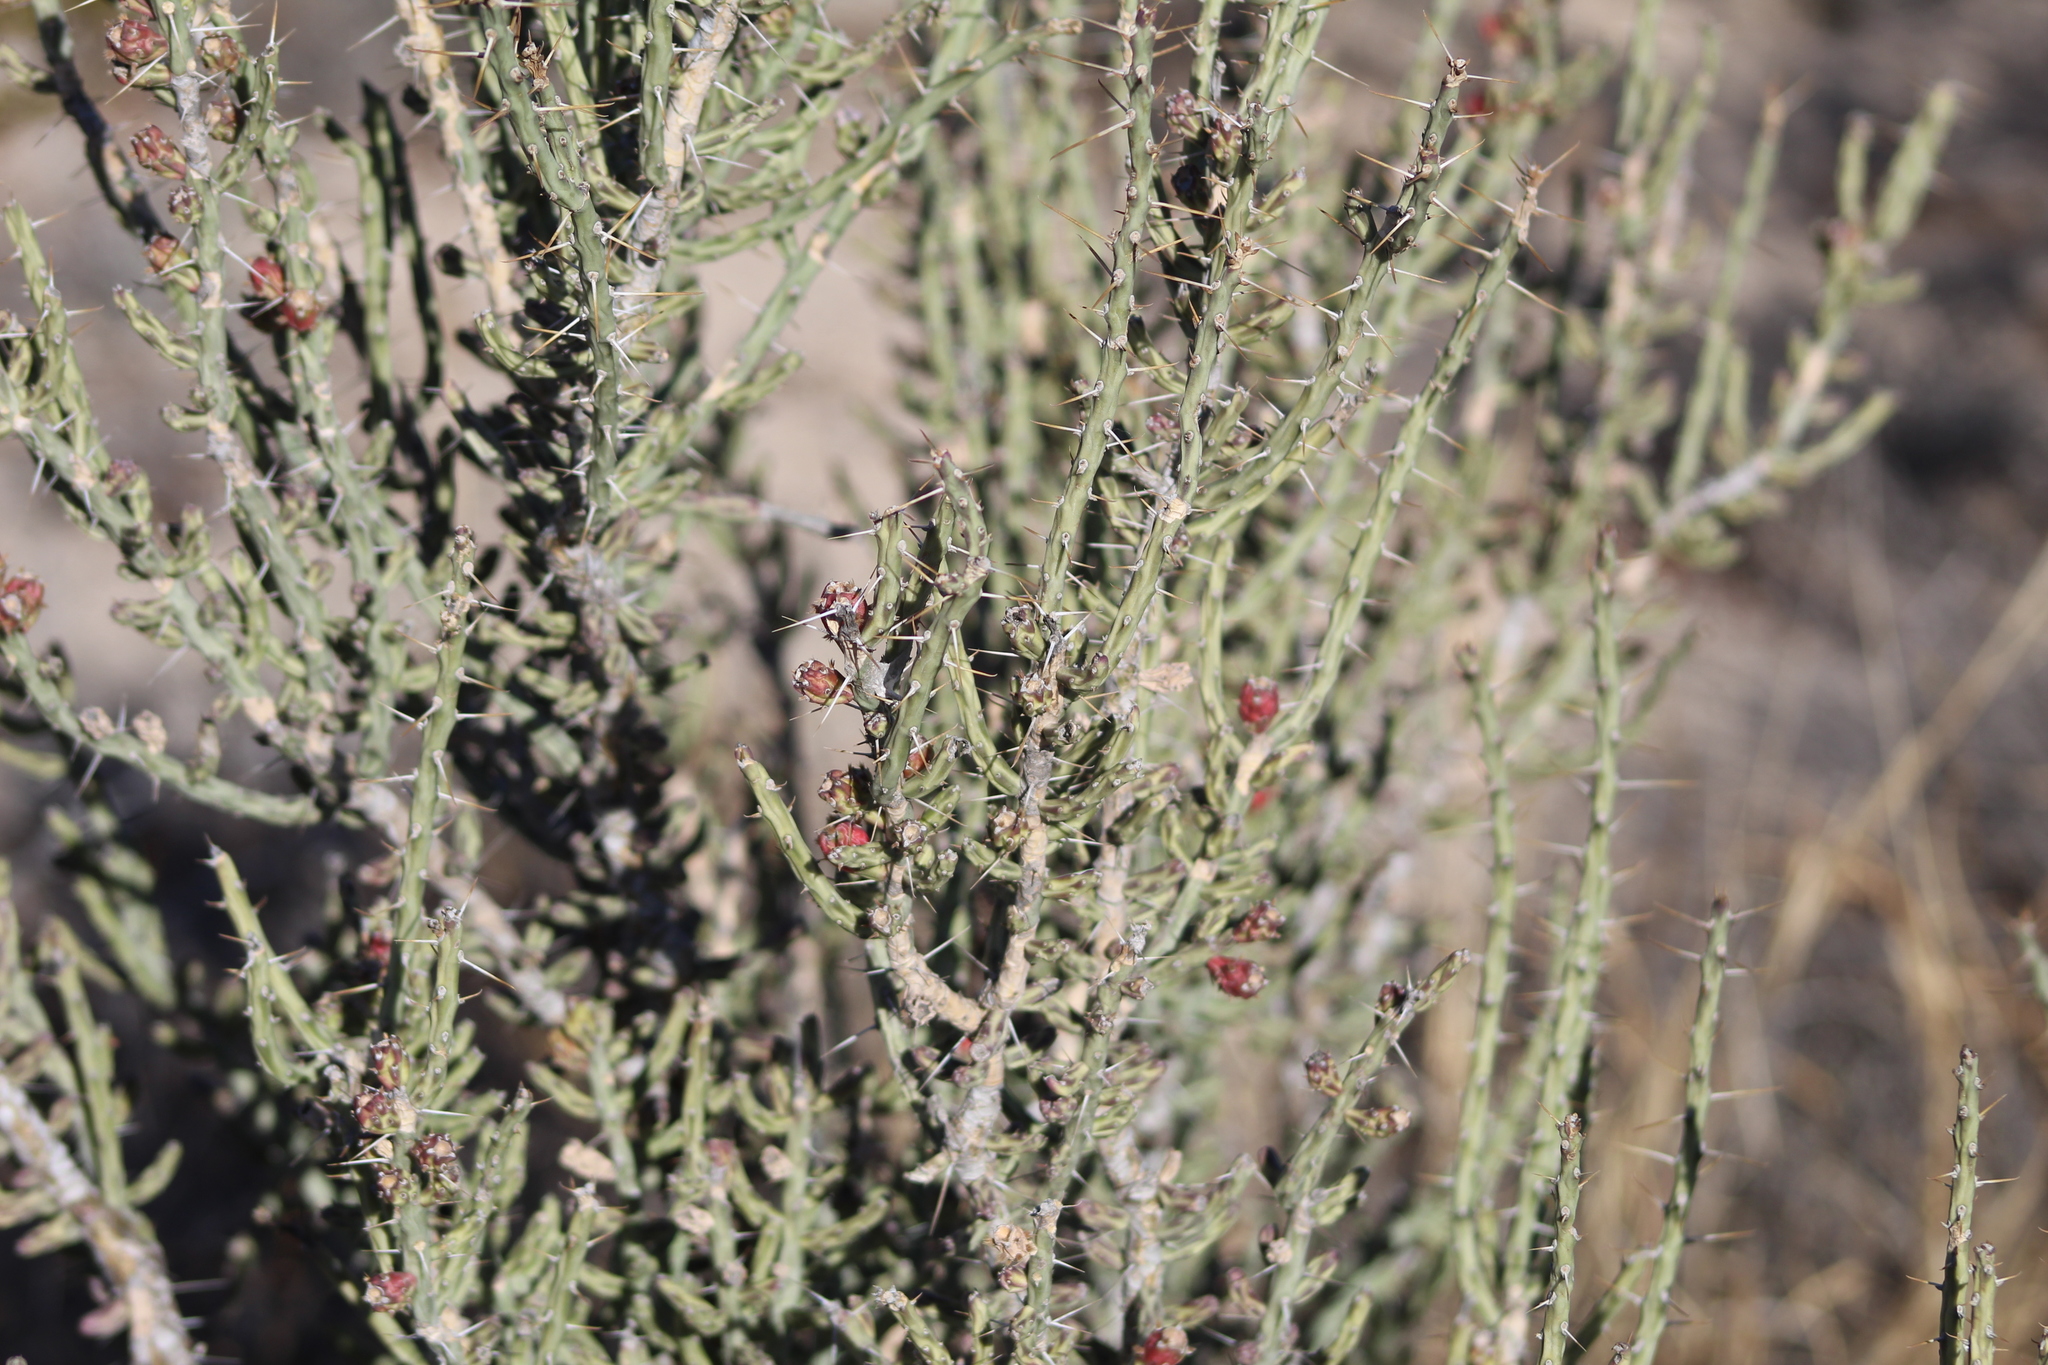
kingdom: Plantae
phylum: Tracheophyta
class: Magnoliopsida
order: Caryophyllales
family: Cactaceae
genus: Cylindropuntia
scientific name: Cylindropuntia leptocaulis
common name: Christmas cactus
